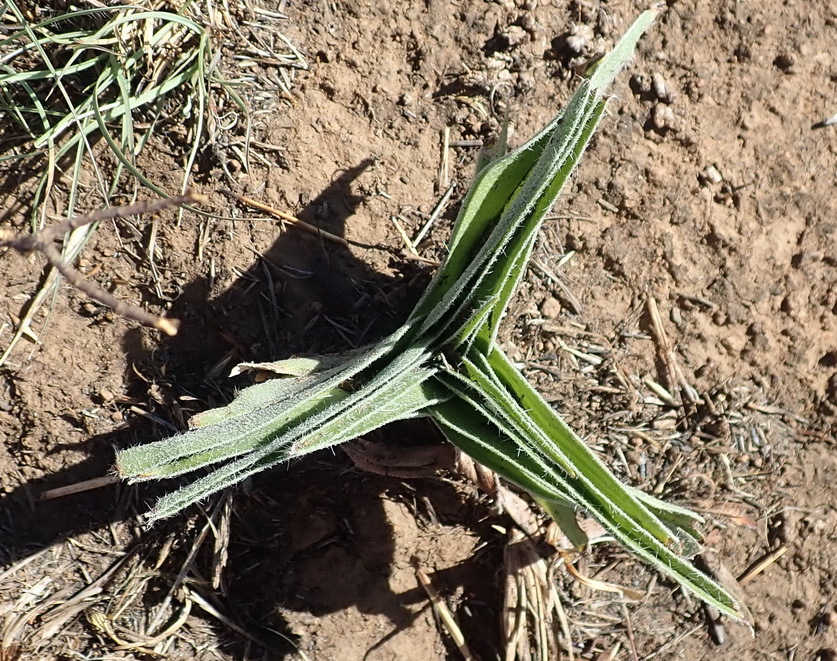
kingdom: Plantae
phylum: Tracheophyta
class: Liliopsida
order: Asparagales
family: Hypoxidaceae
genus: Hypoxis
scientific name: Hypoxis hemerocallidea
